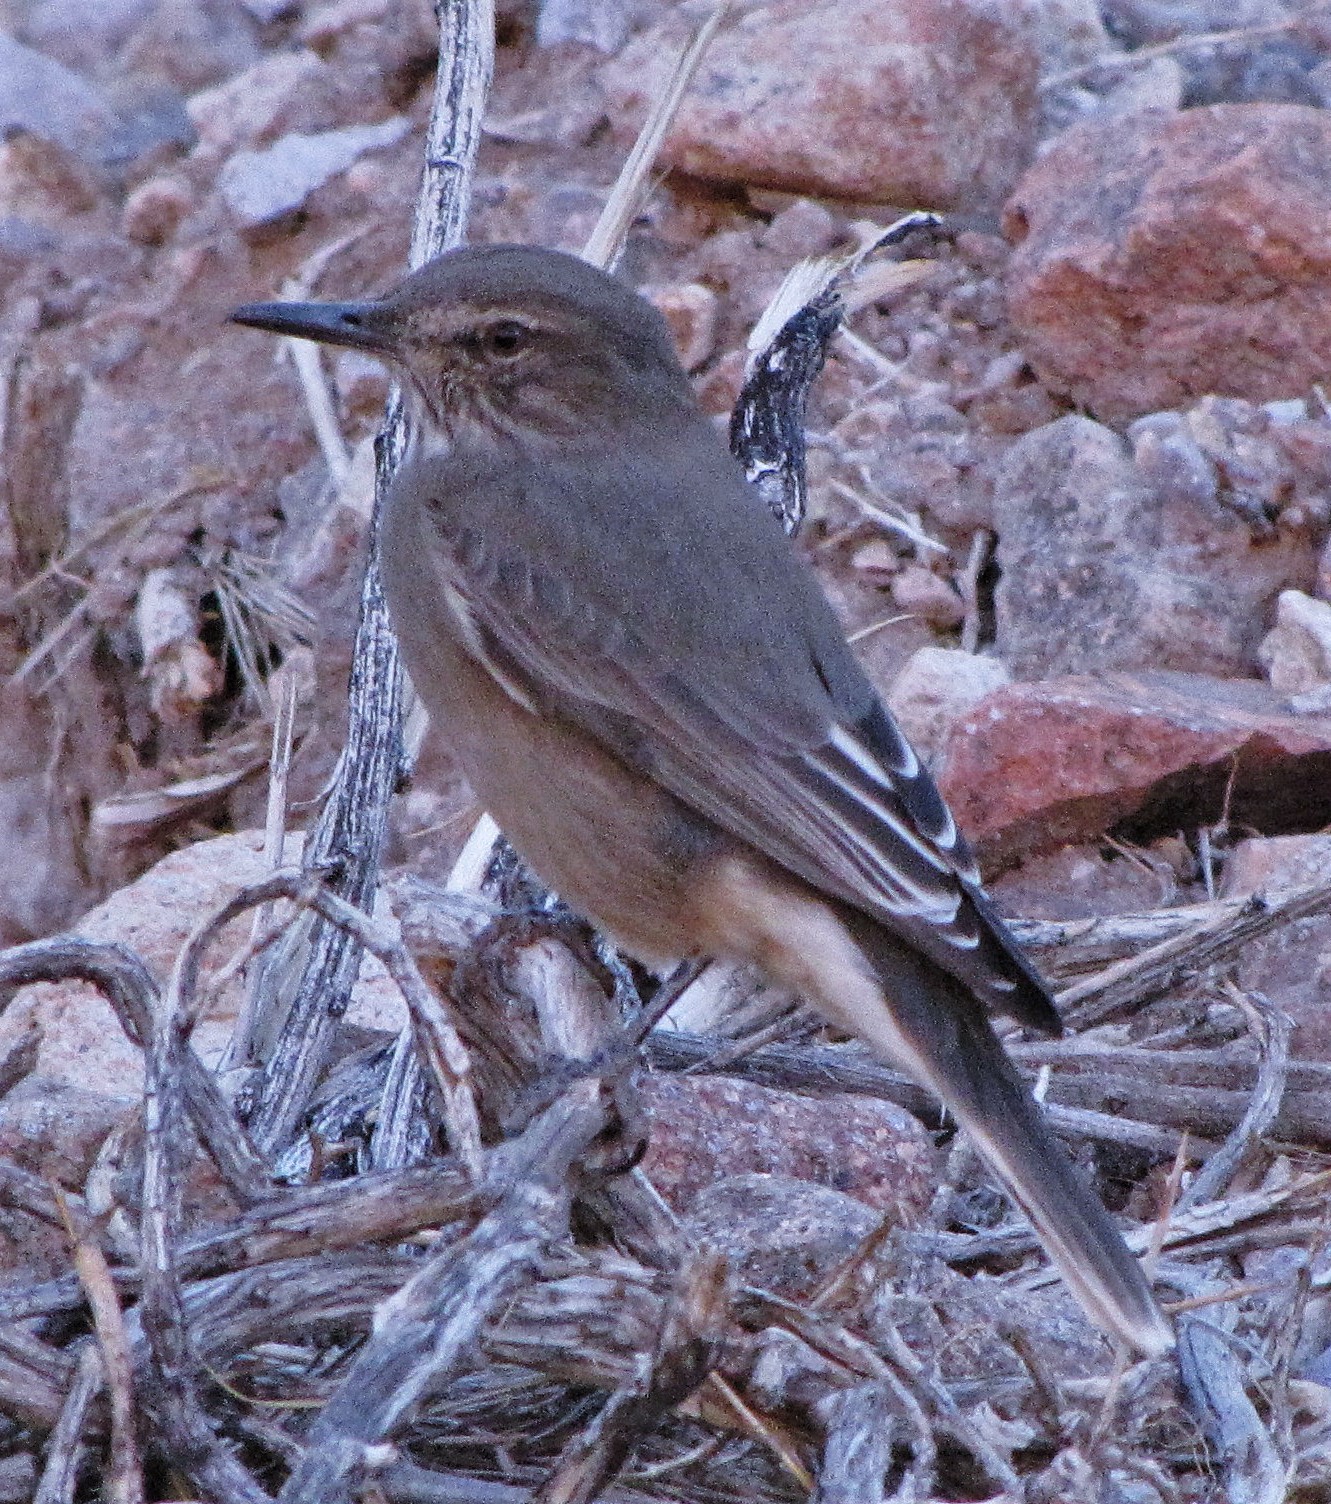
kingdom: Animalia
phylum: Chordata
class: Aves
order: Passeriformes
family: Tyrannidae
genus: Agriornis
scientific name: Agriornis montanus
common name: Black-billed shrike-tyrant
